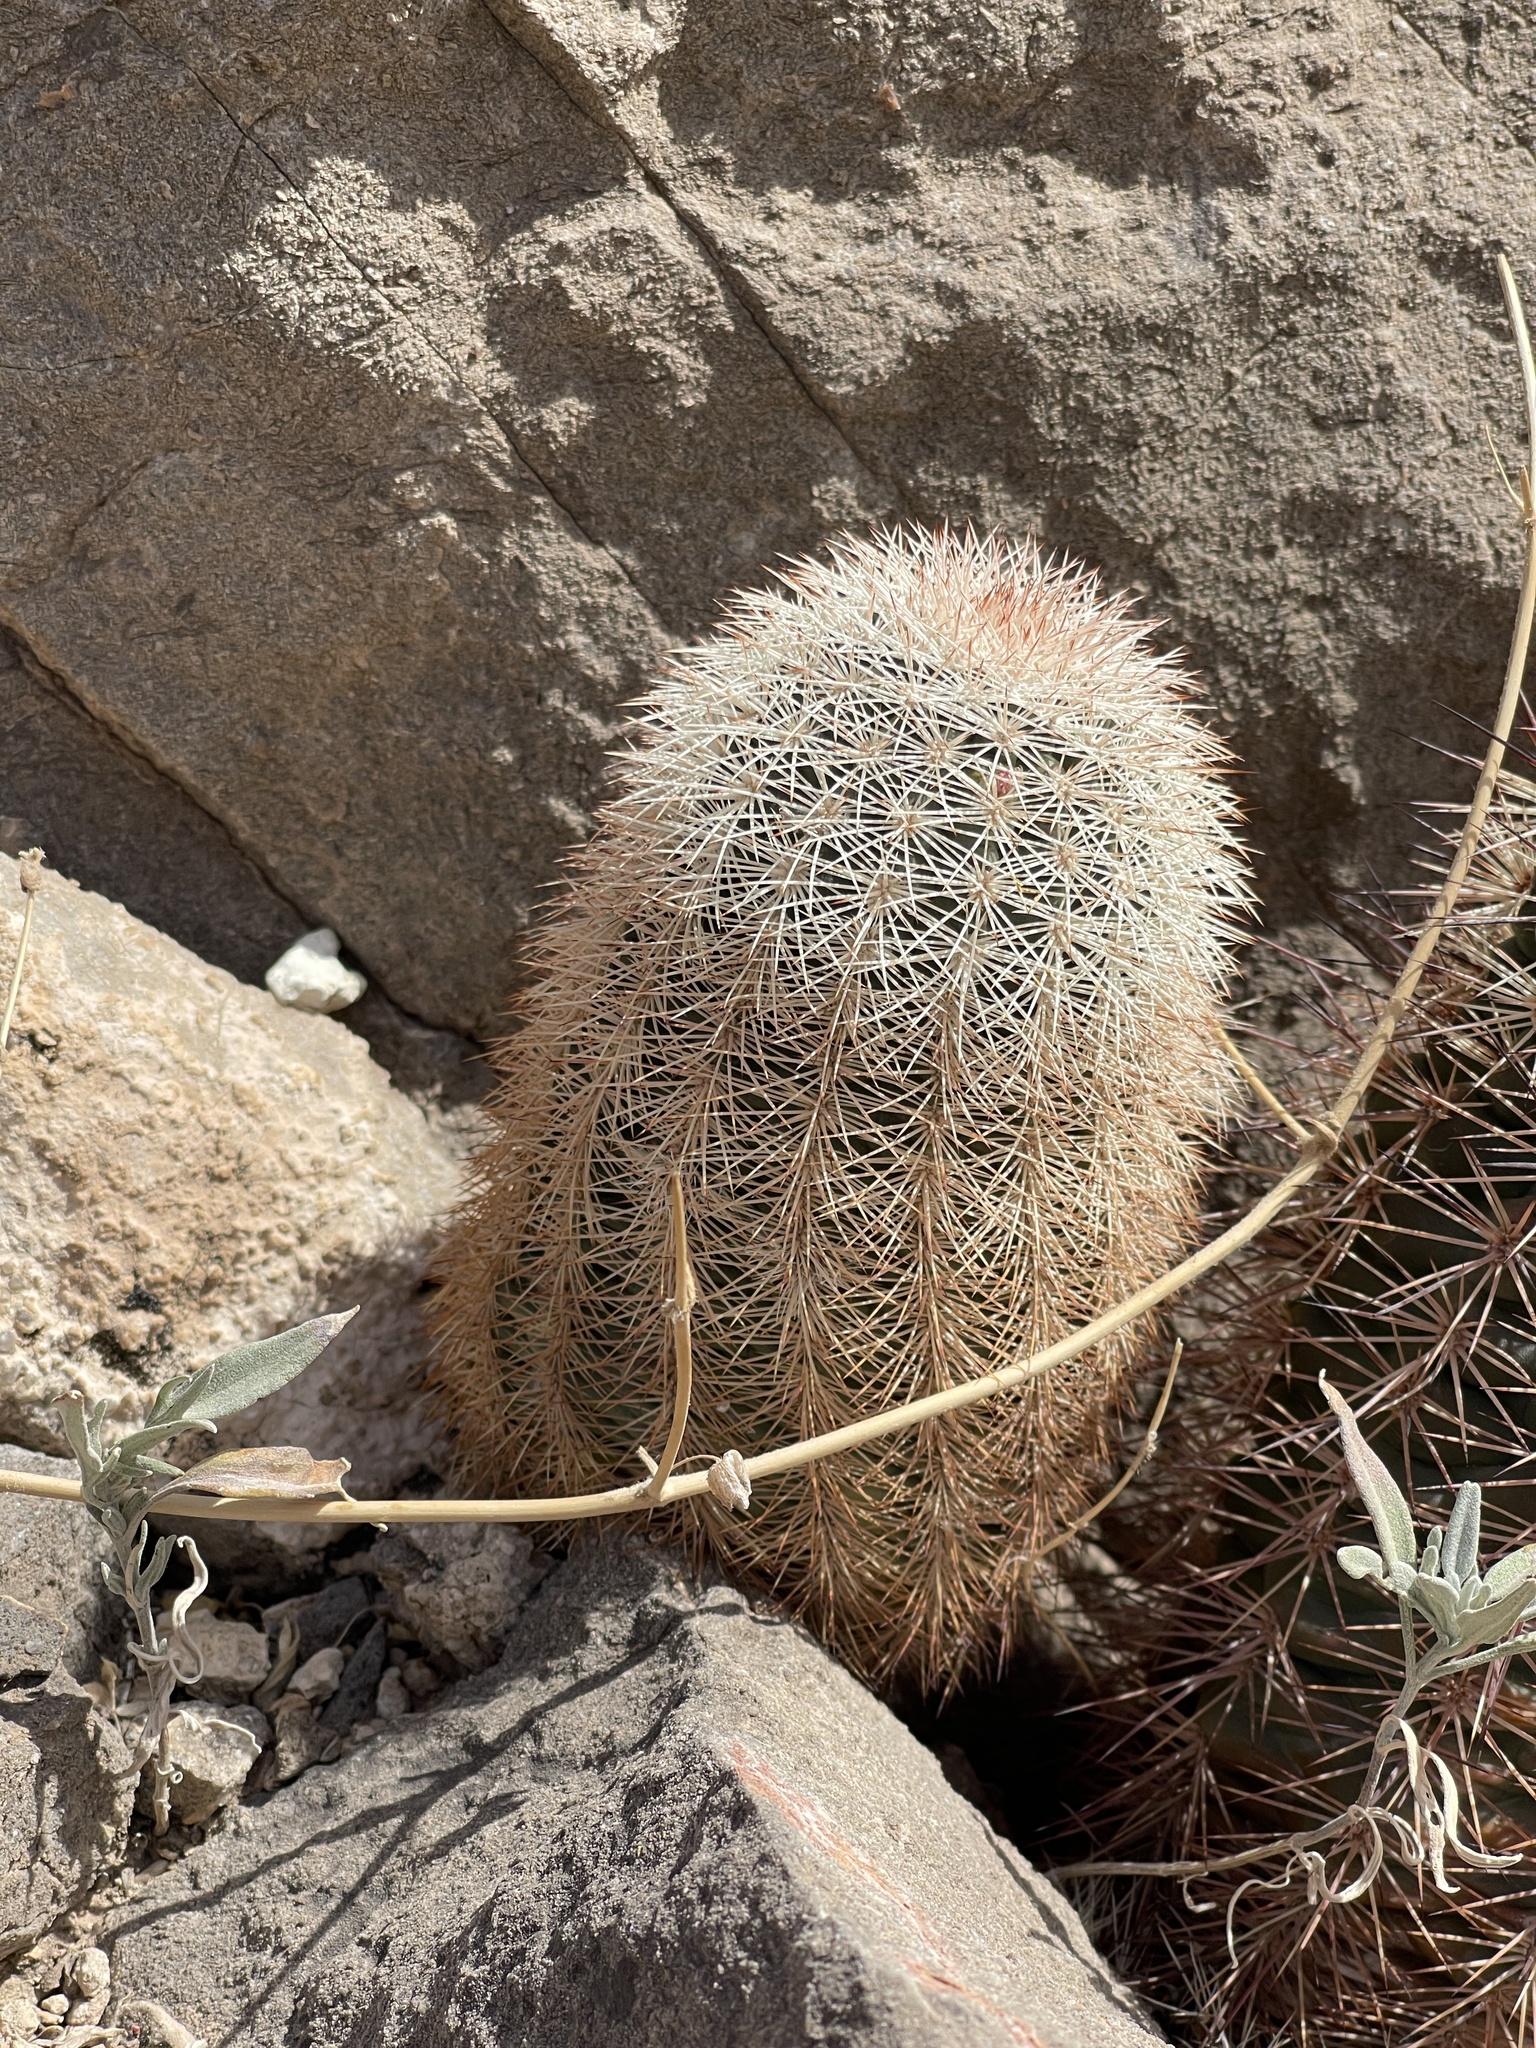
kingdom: Plantae
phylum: Tracheophyta
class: Magnoliopsida
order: Caryophyllales
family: Cactaceae
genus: Echinocereus
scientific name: Echinocereus dasyacanthus
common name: Spiny hedgehog cactus
